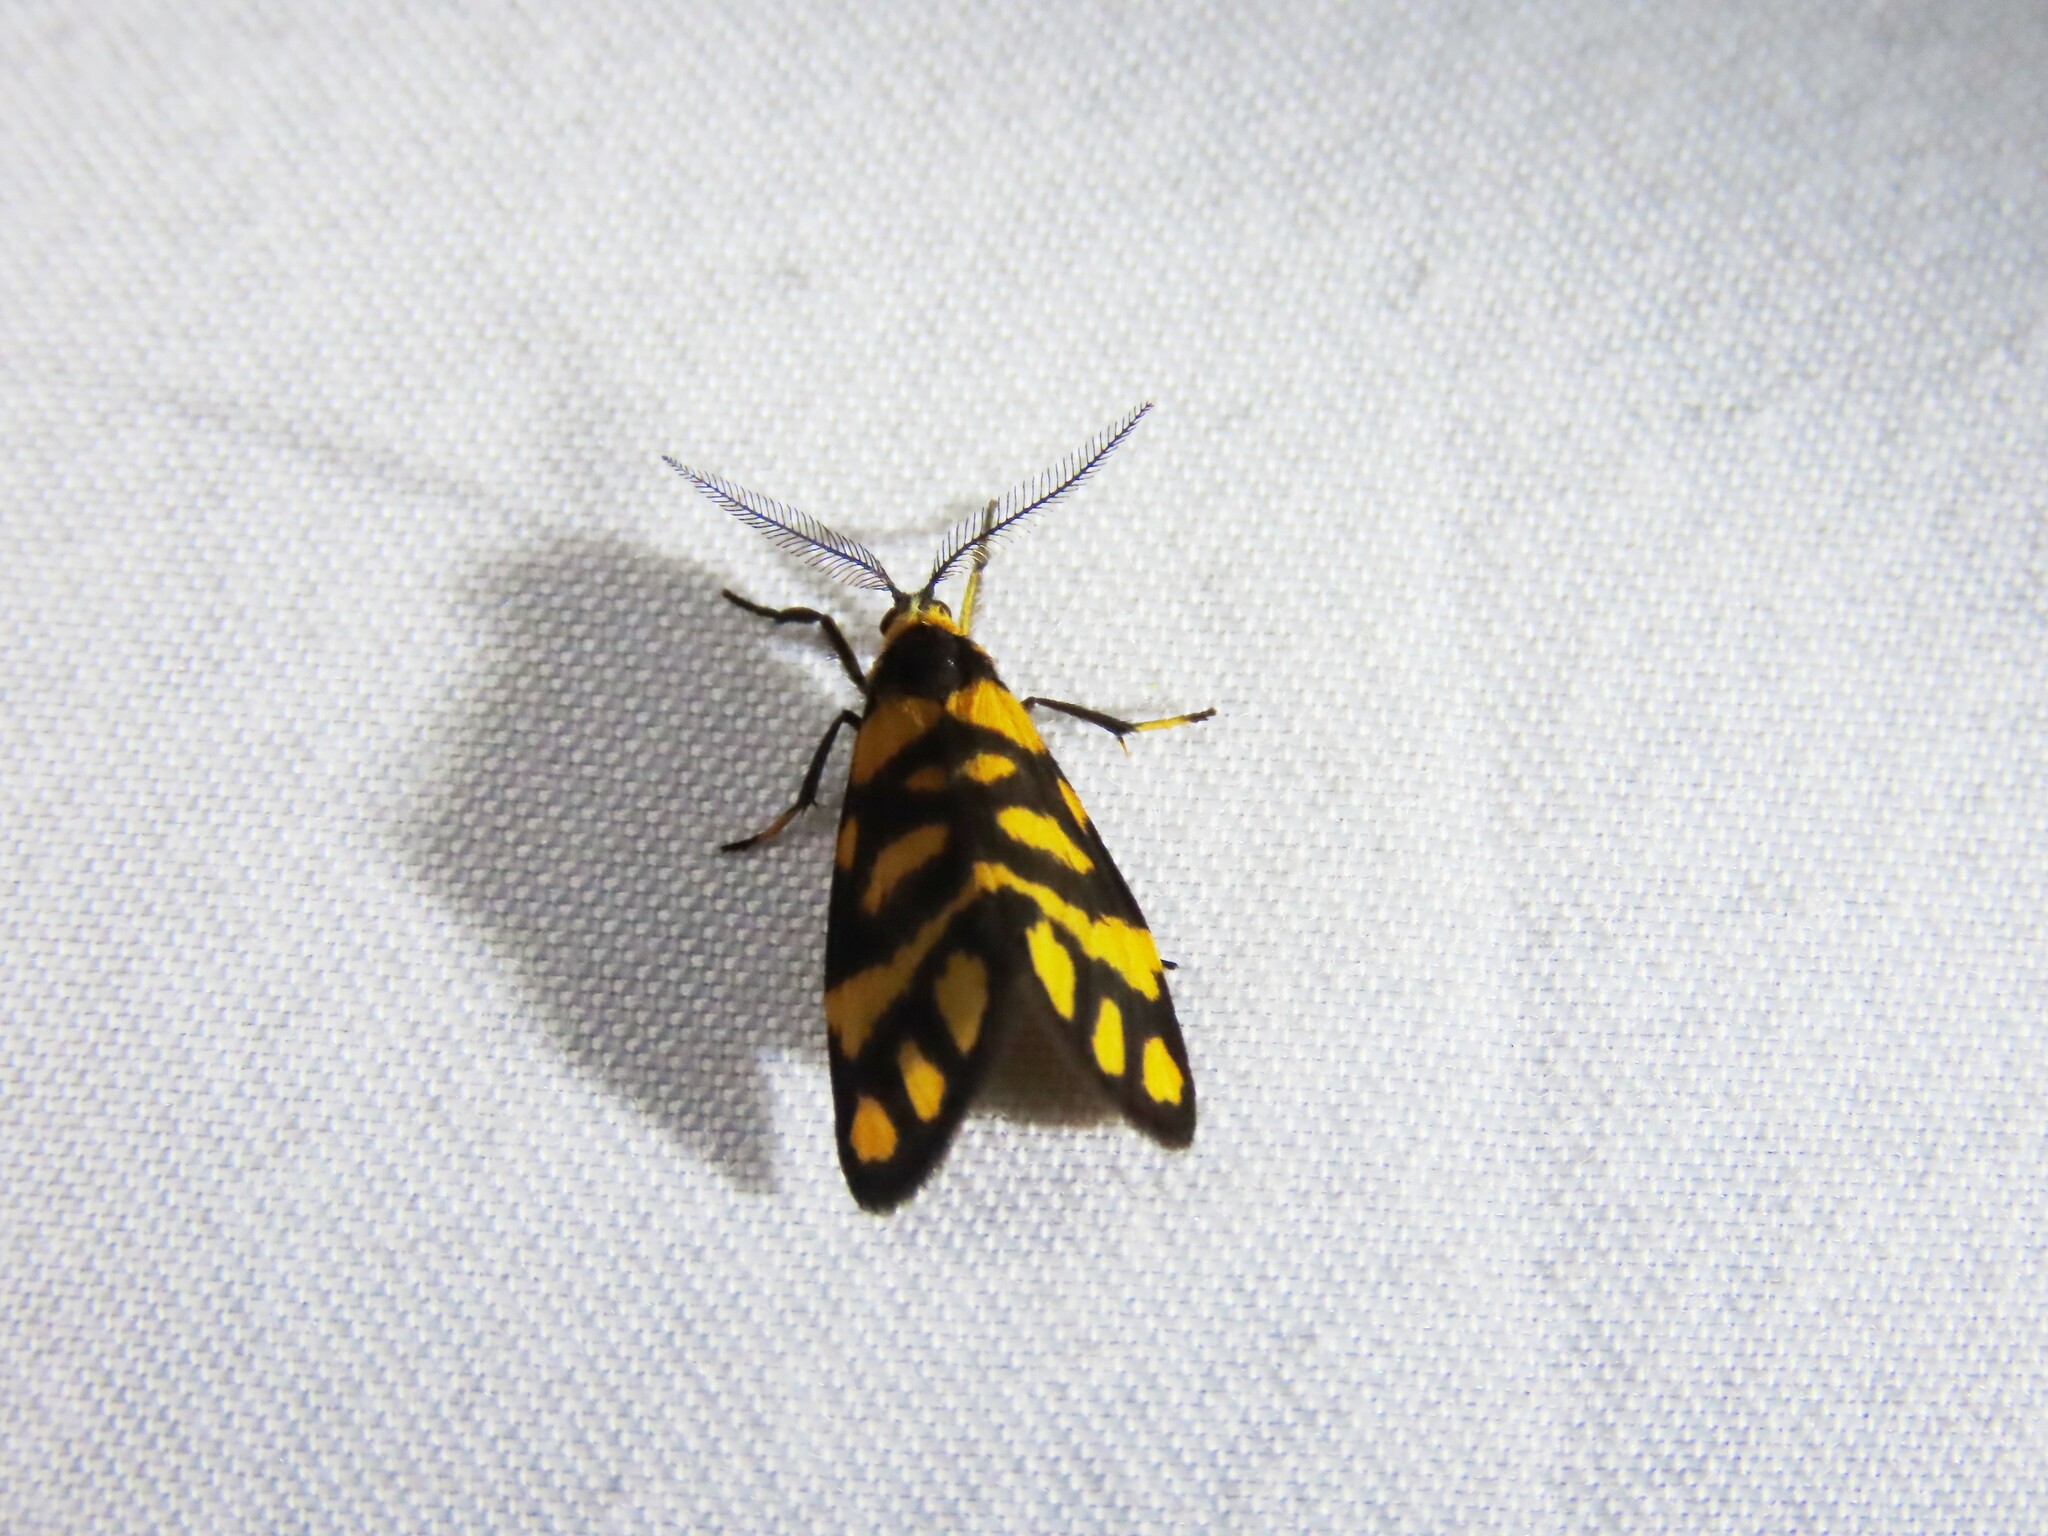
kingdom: Animalia
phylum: Arthropoda
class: Insecta
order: Lepidoptera
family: Erebidae
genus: Asura
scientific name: Asura lydia
